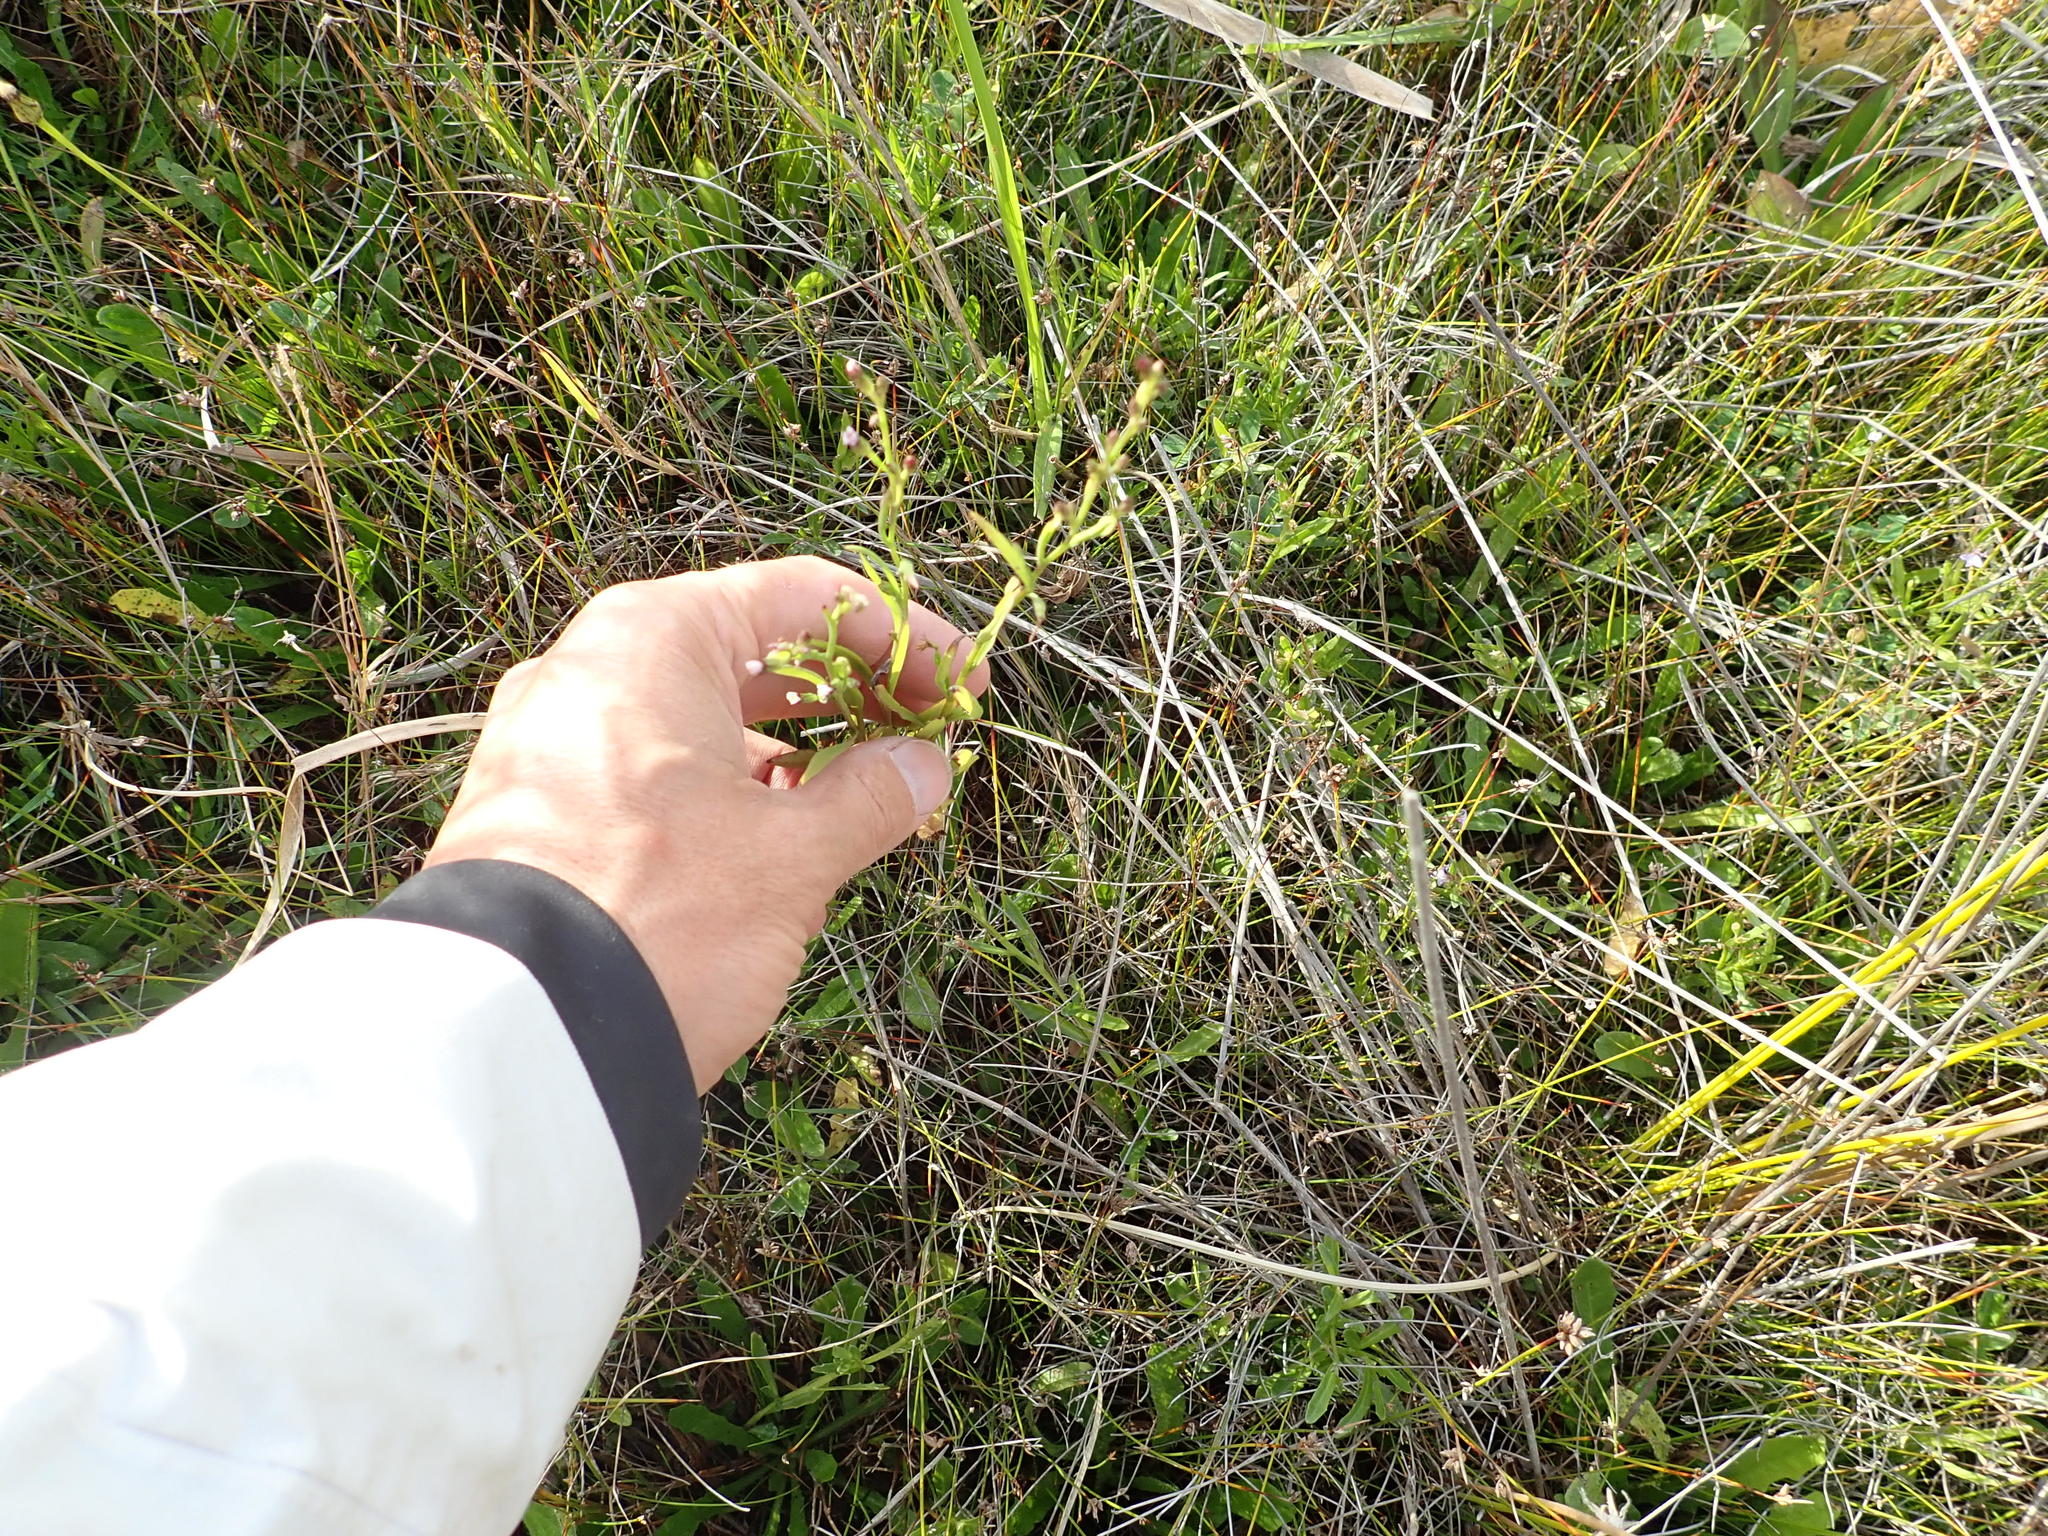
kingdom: Plantae
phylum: Tracheophyta
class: Magnoliopsida
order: Asterales
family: Asteraceae
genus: Symphyotrichum
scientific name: Symphyotrichum subulatum
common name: Annual saltmarsh aster
